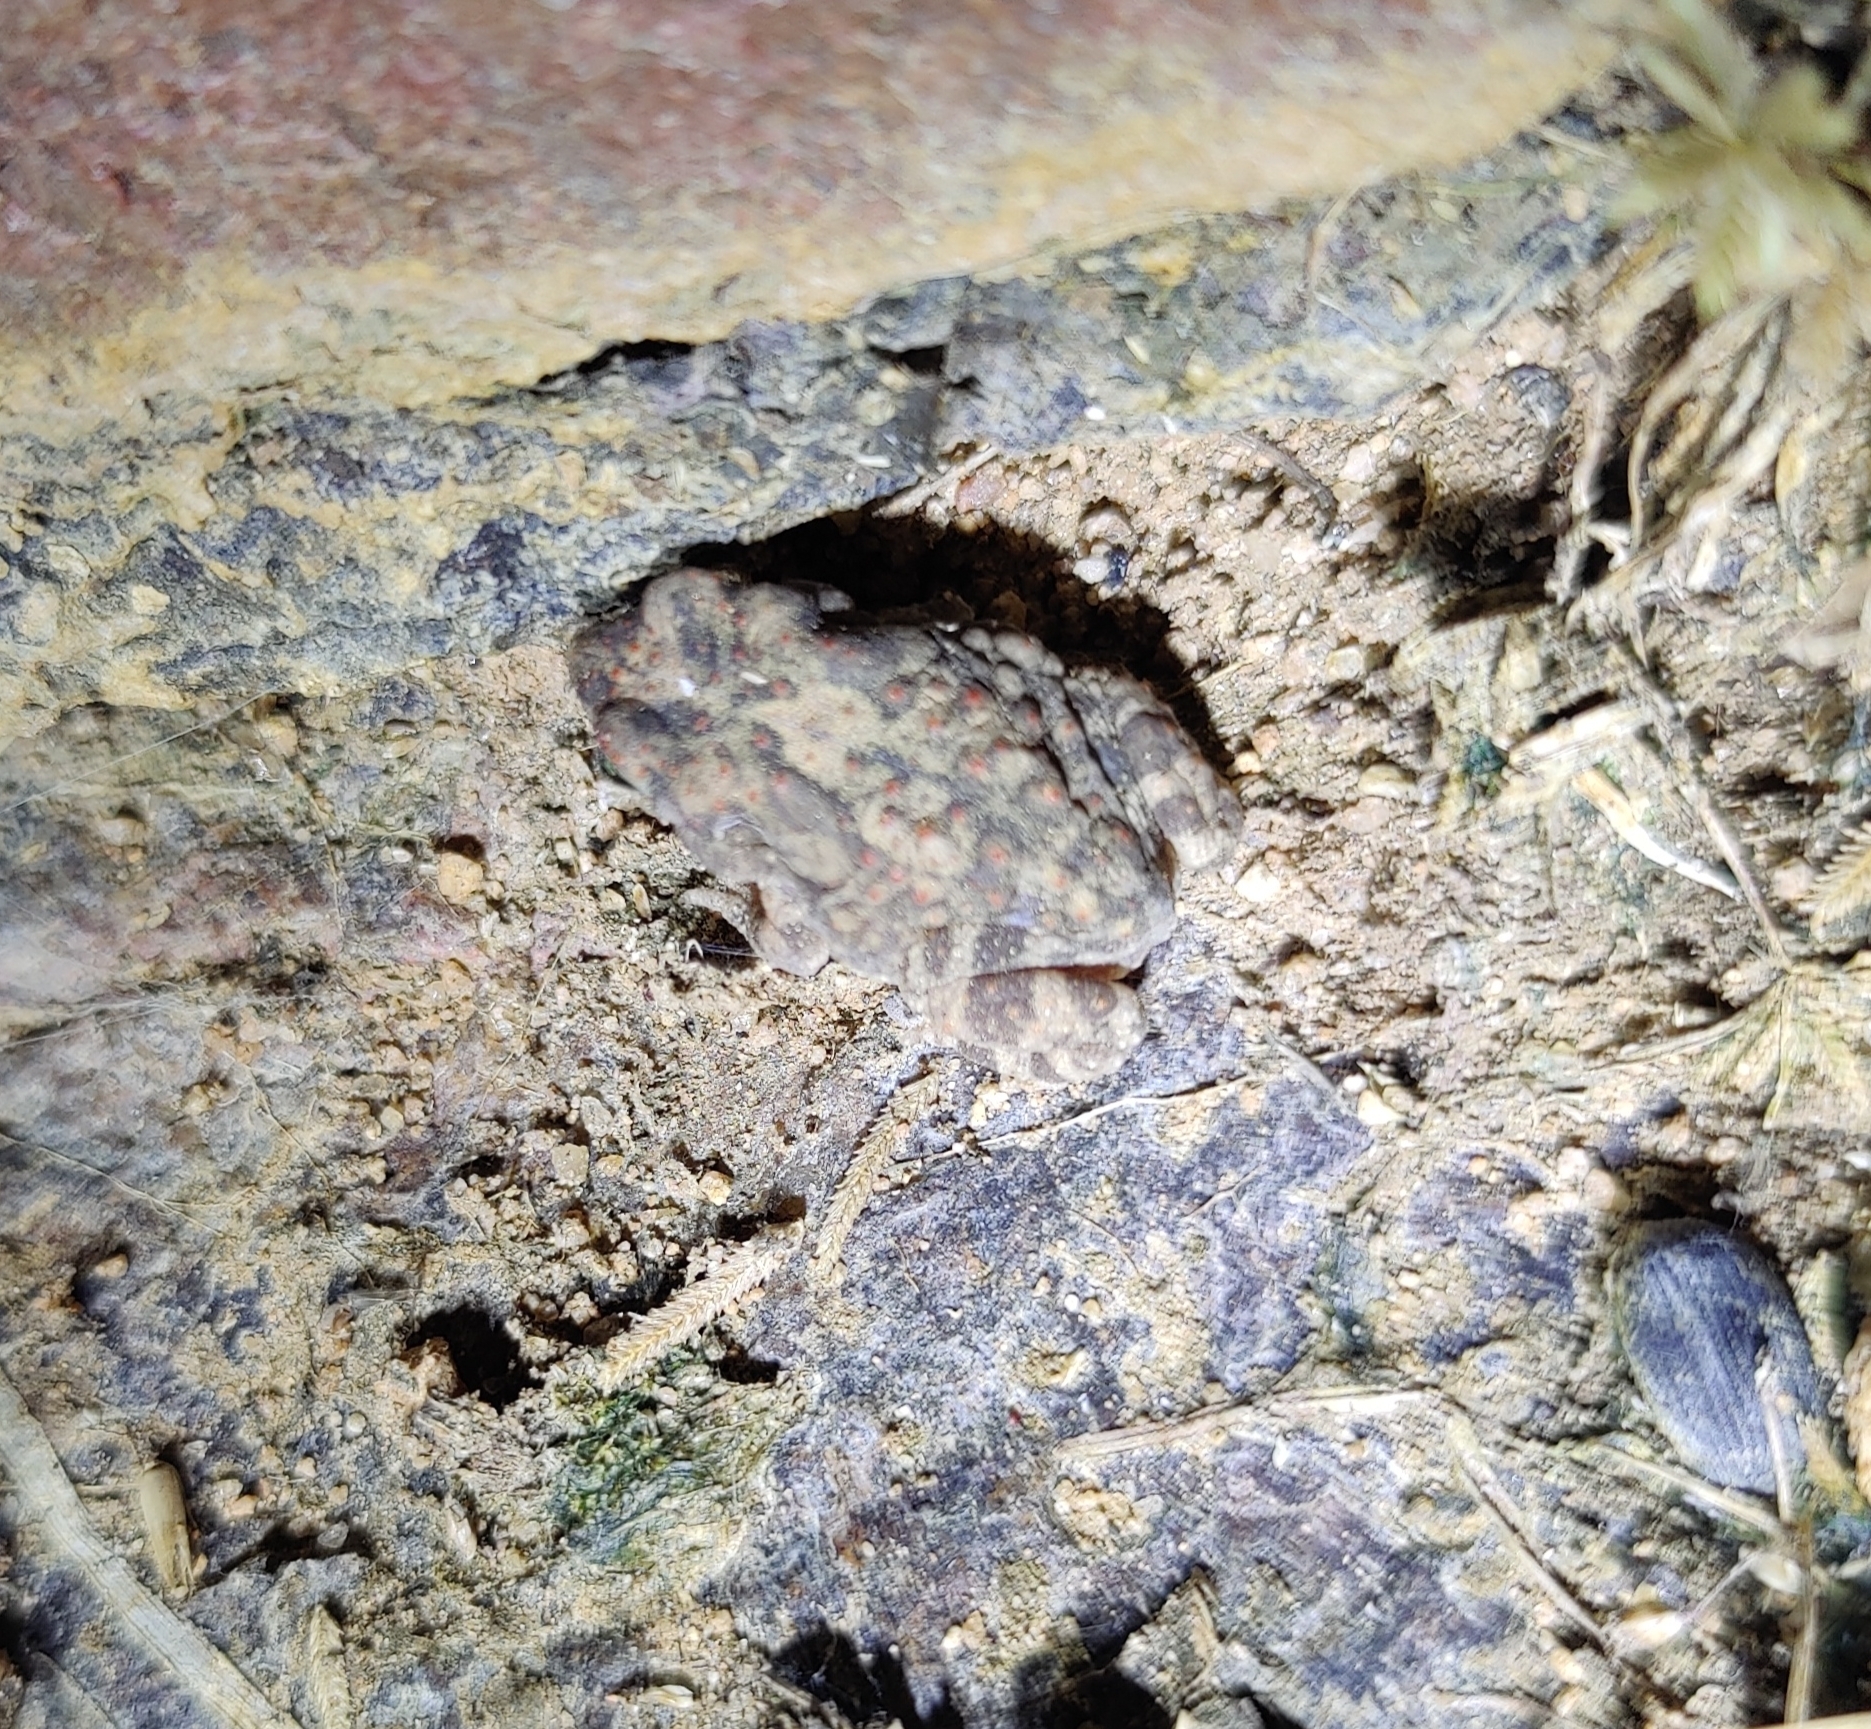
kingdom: Animalia
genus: Firouzophrynus
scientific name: Firouzophrynus
